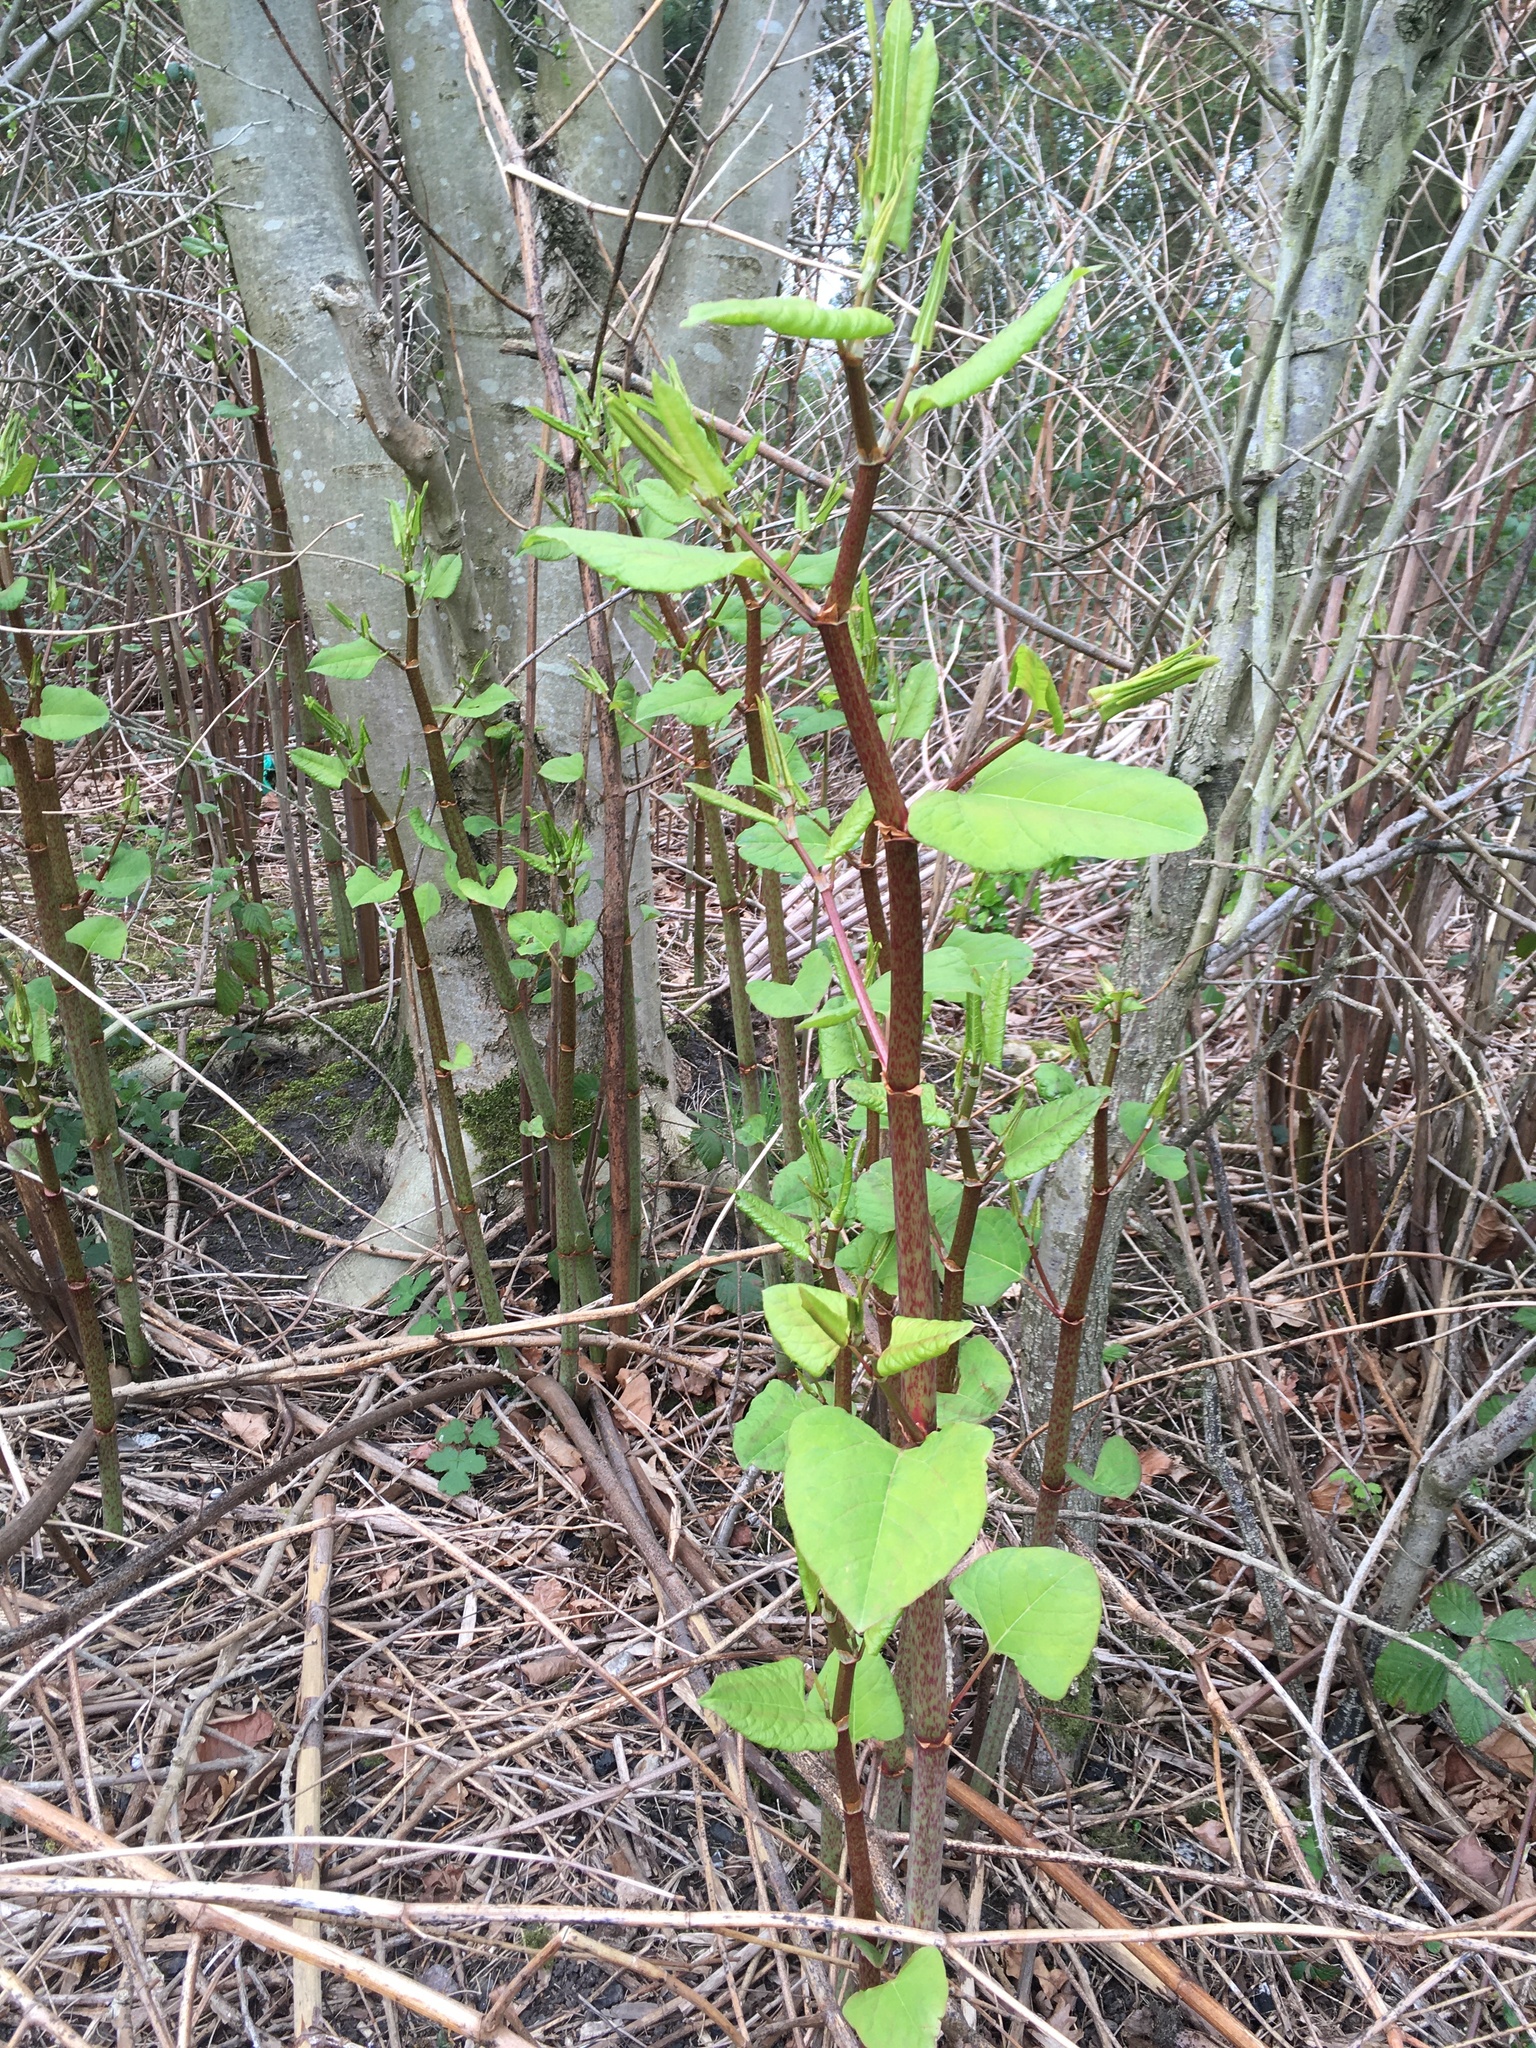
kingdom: Plantae
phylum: Tracheophyta
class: Magnoliopsida
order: Caryophyllales
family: Polygonaceae
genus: Reynoutria
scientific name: Reynoutria japonica
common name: Japanese knotweed
